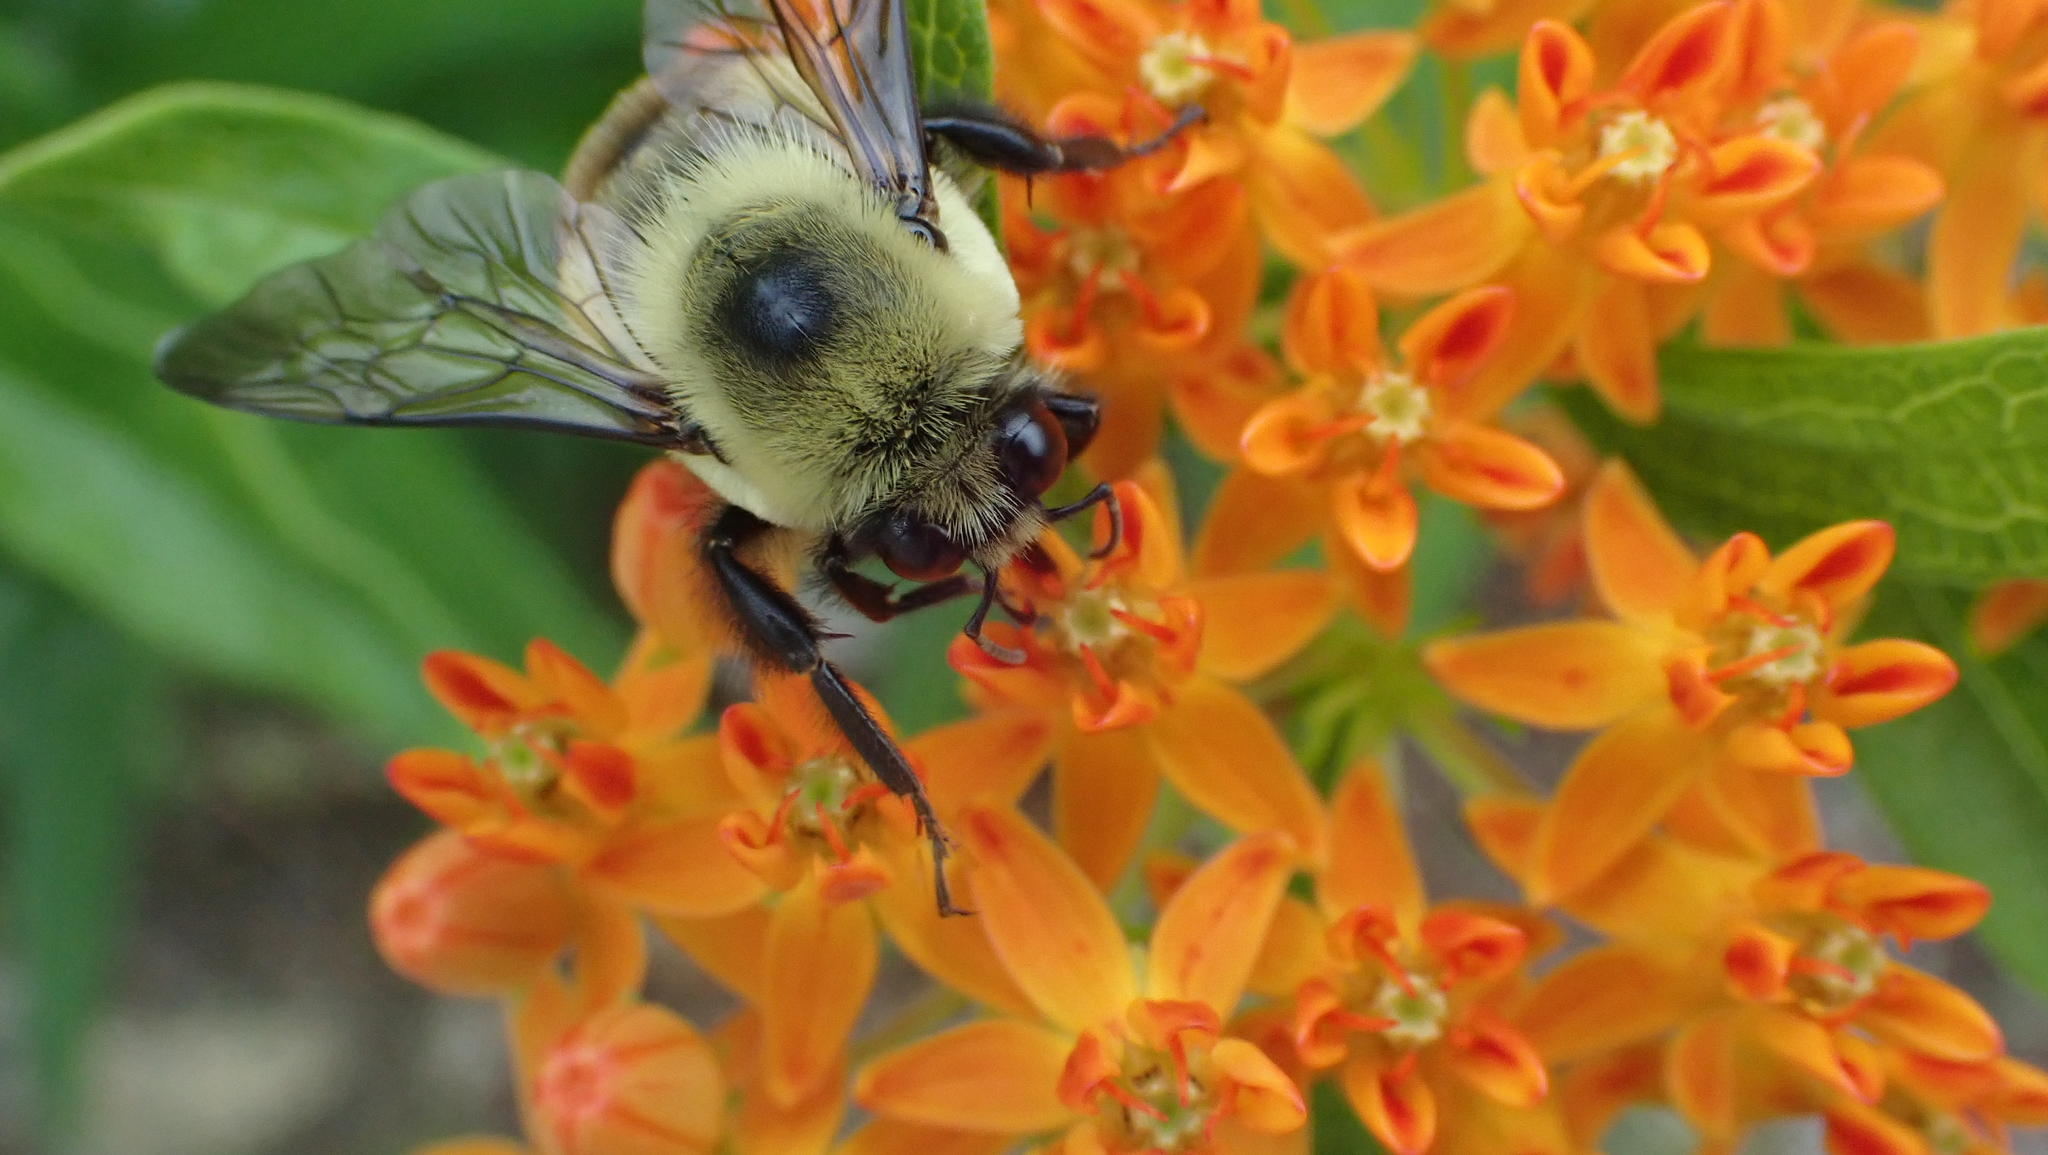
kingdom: Animalia
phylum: Arthropoda
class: Insecta
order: Hymenoptera
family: Apidae
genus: Bombus
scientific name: Bombus griseocollis
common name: Brown-belted bumble bee
